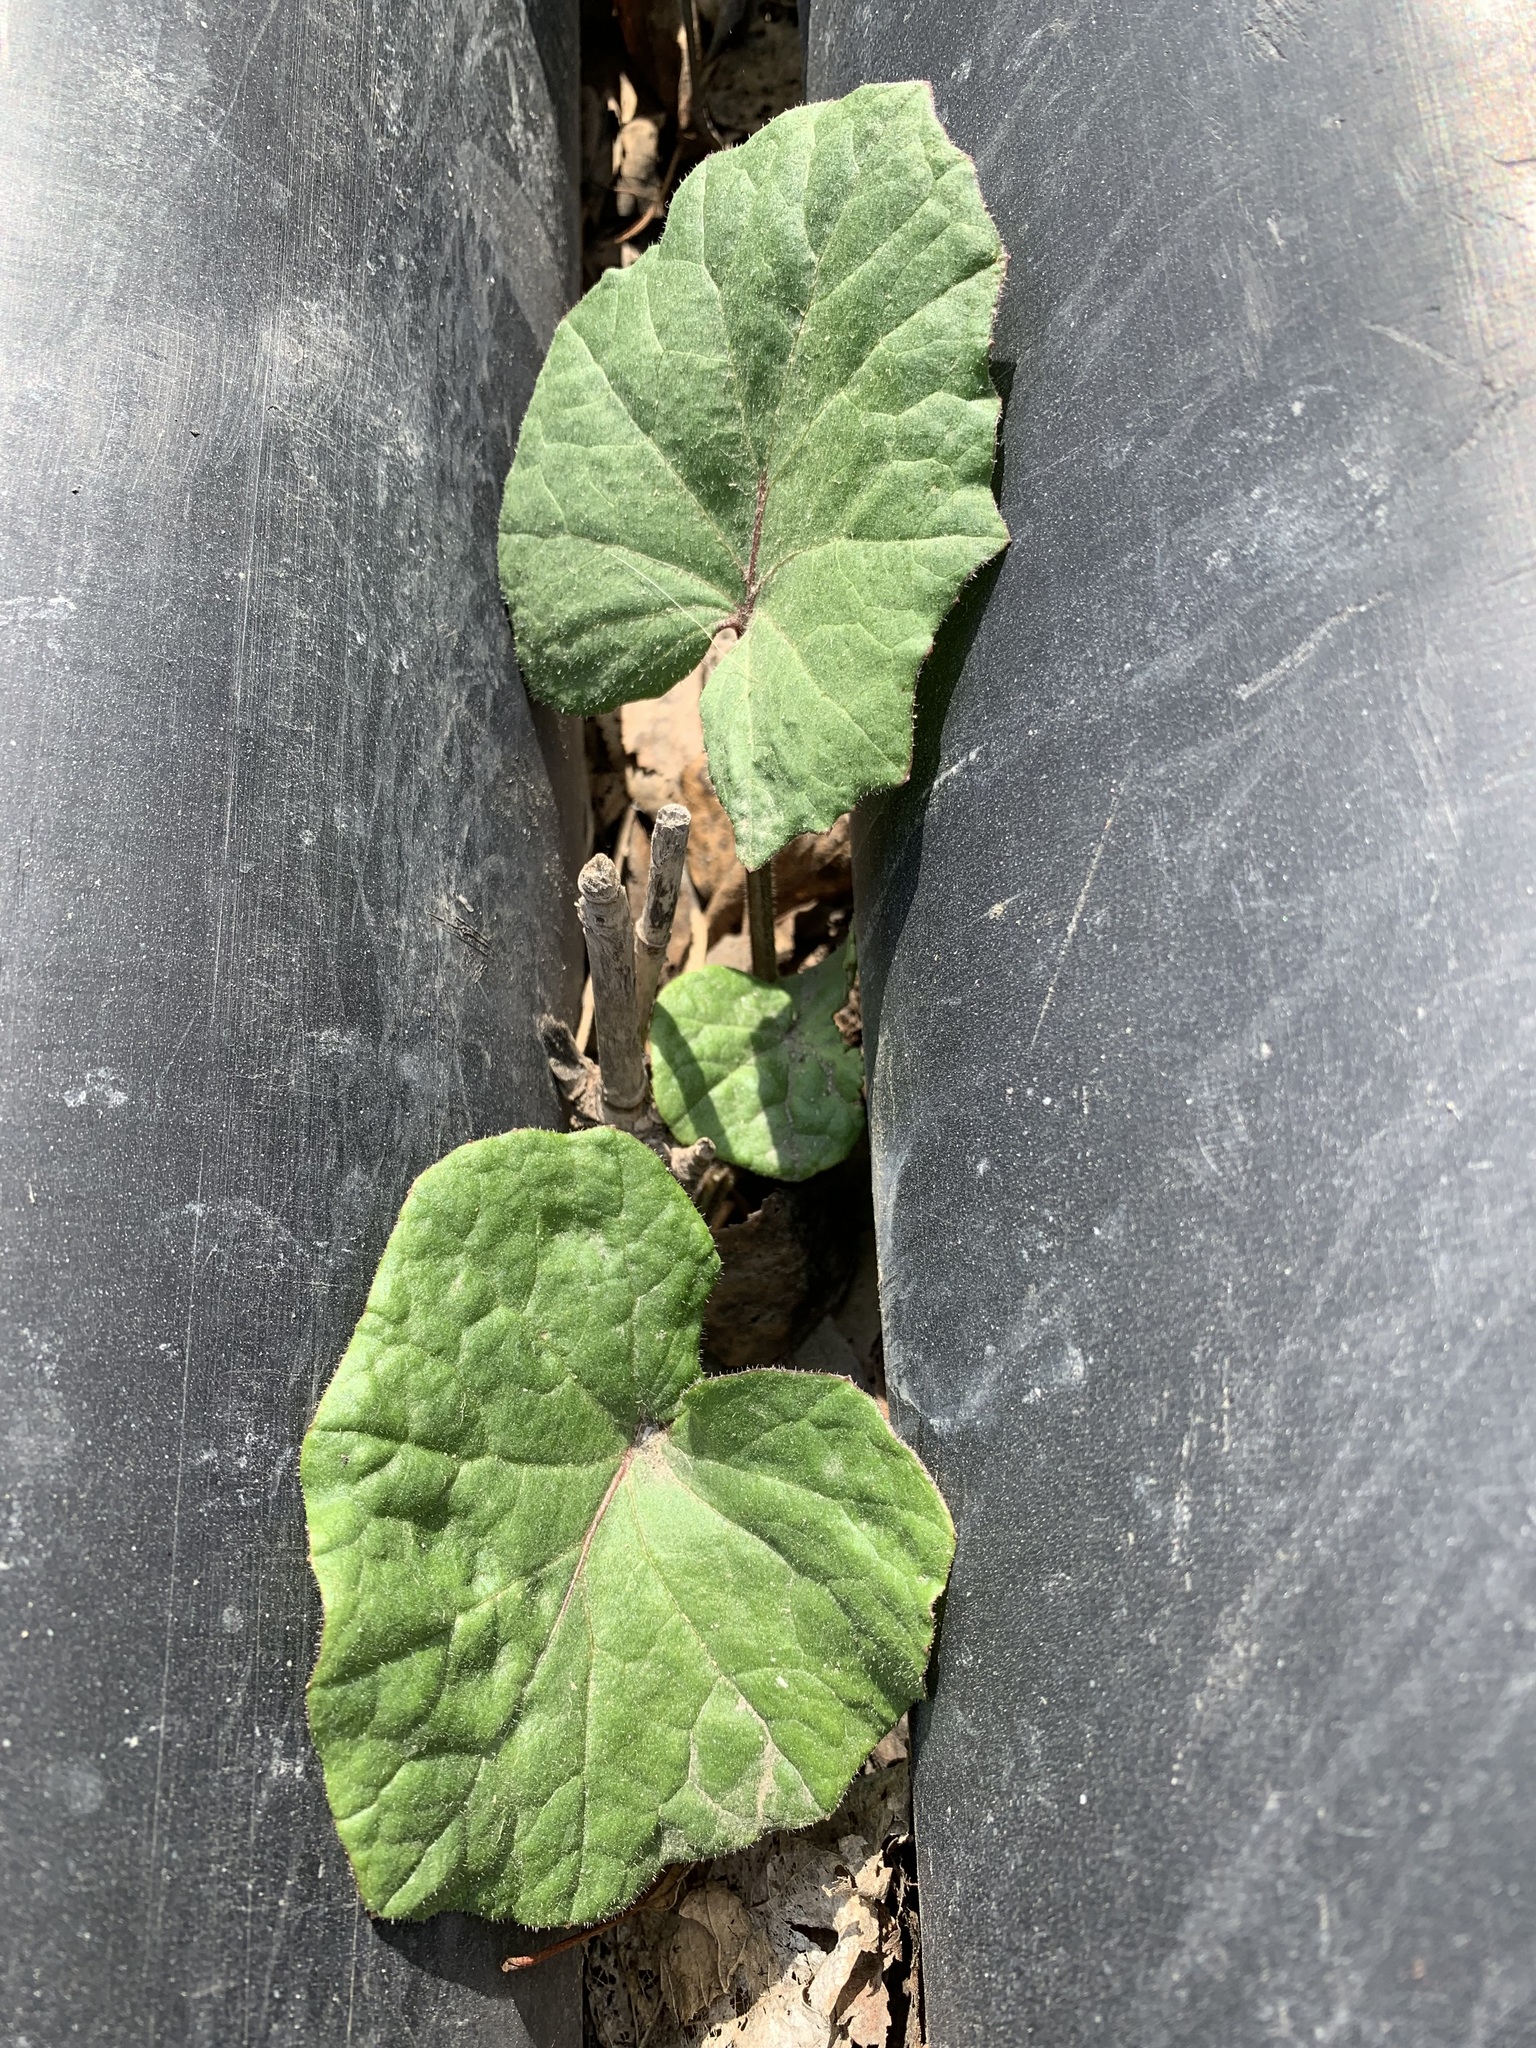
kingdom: Plantae
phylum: Tracheophyta
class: Magnoliopsida
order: Asterales
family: Asteraceae
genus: Tussilago
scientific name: Tussilago farfara
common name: Coltsfoot
